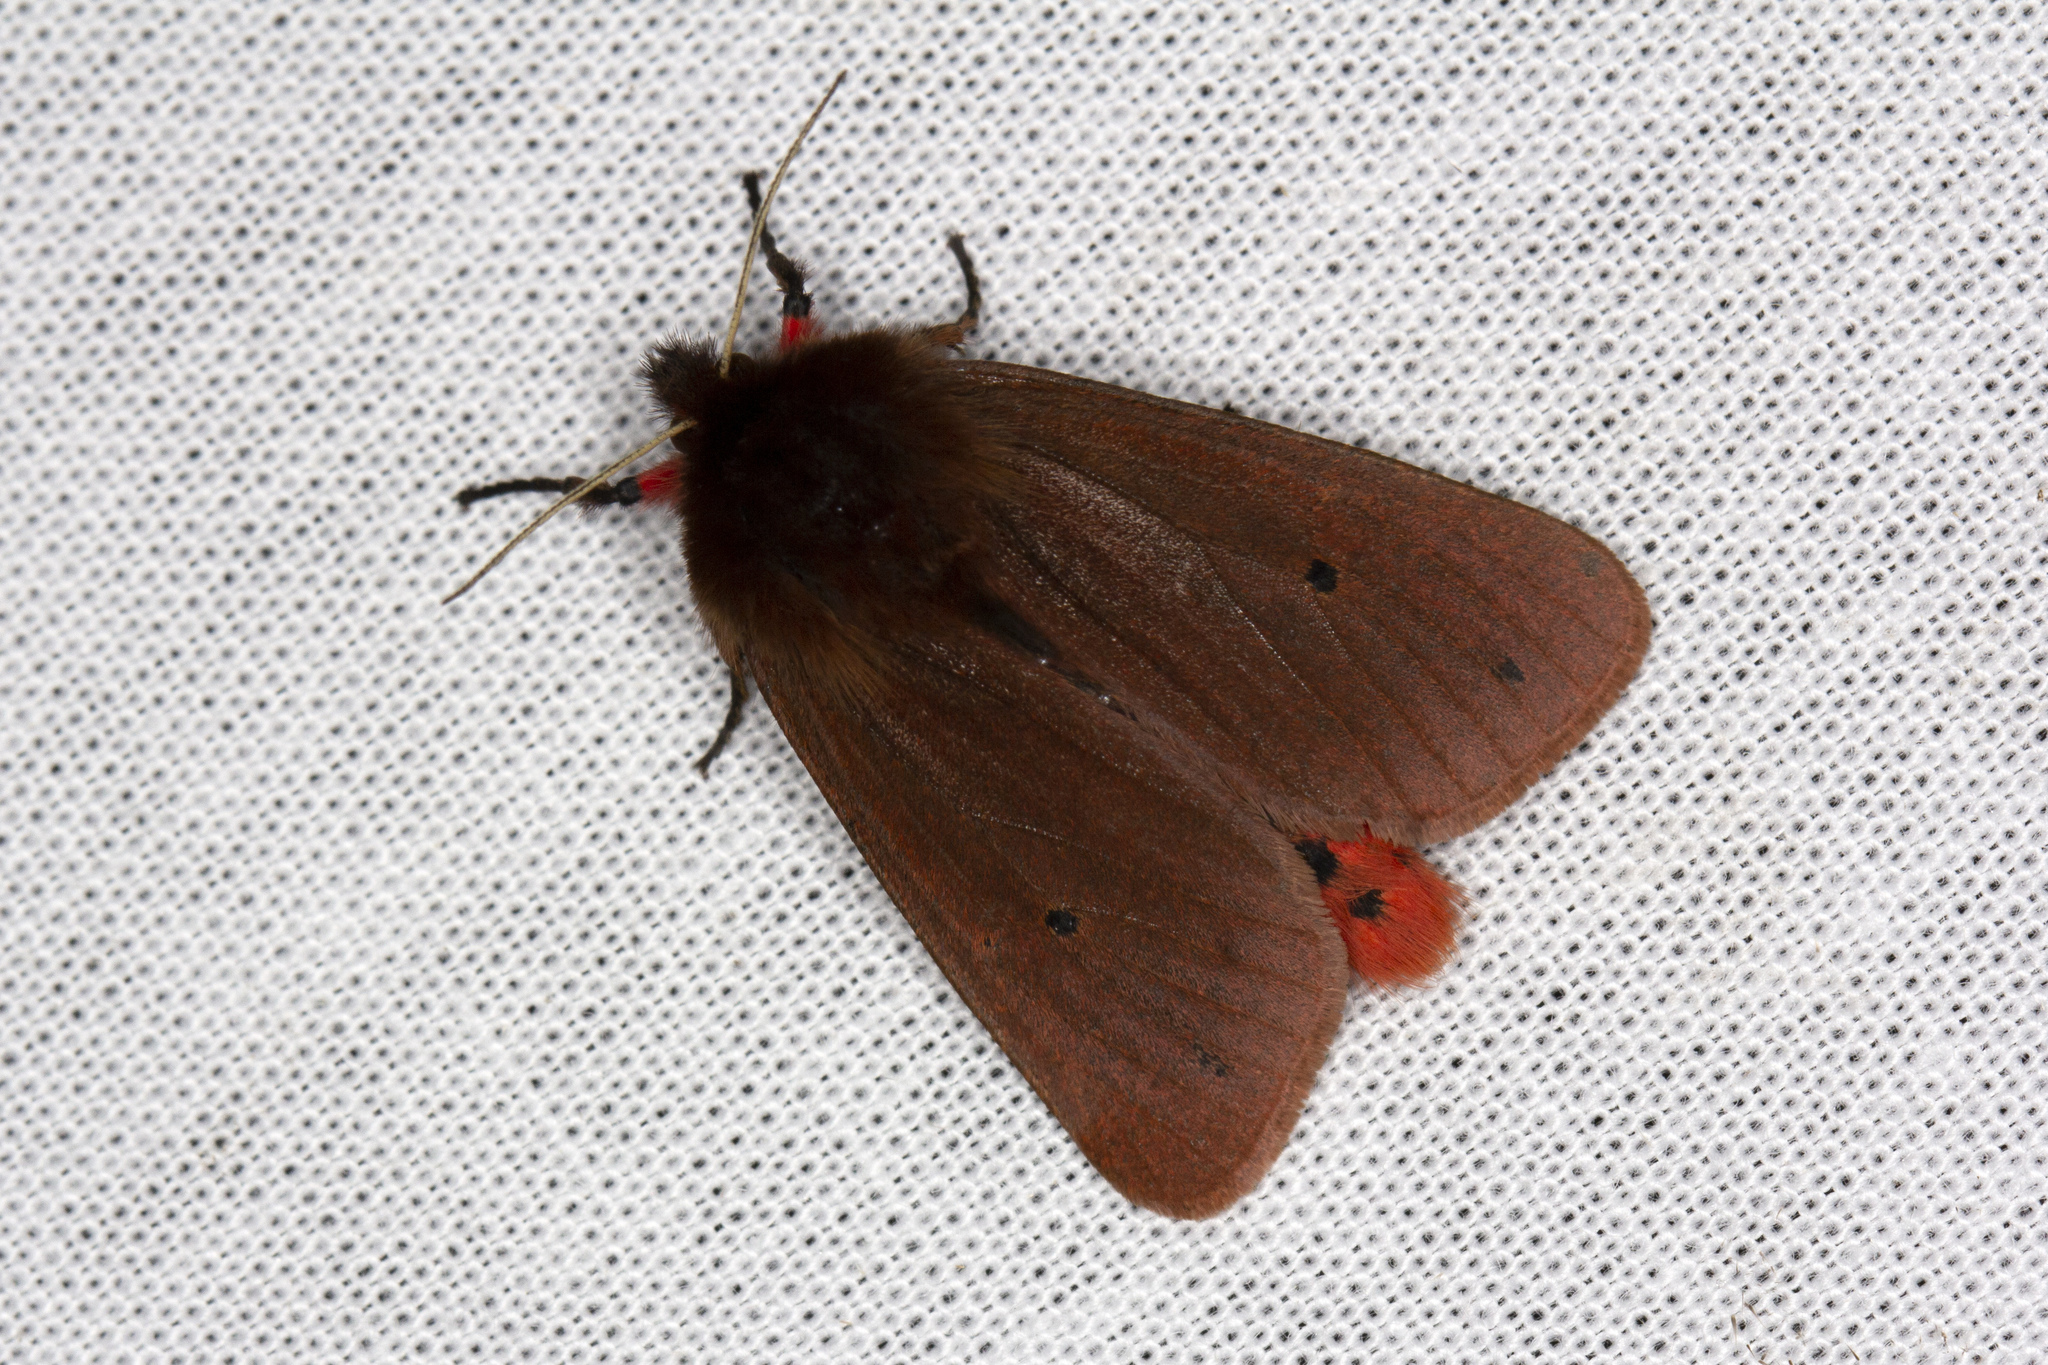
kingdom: Animalia
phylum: Arthropoda
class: Insecta
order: Lepidoptera
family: Erebidae
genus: Phragmatobia
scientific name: Phragmatobia fuliginosa
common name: Ruby tiger
